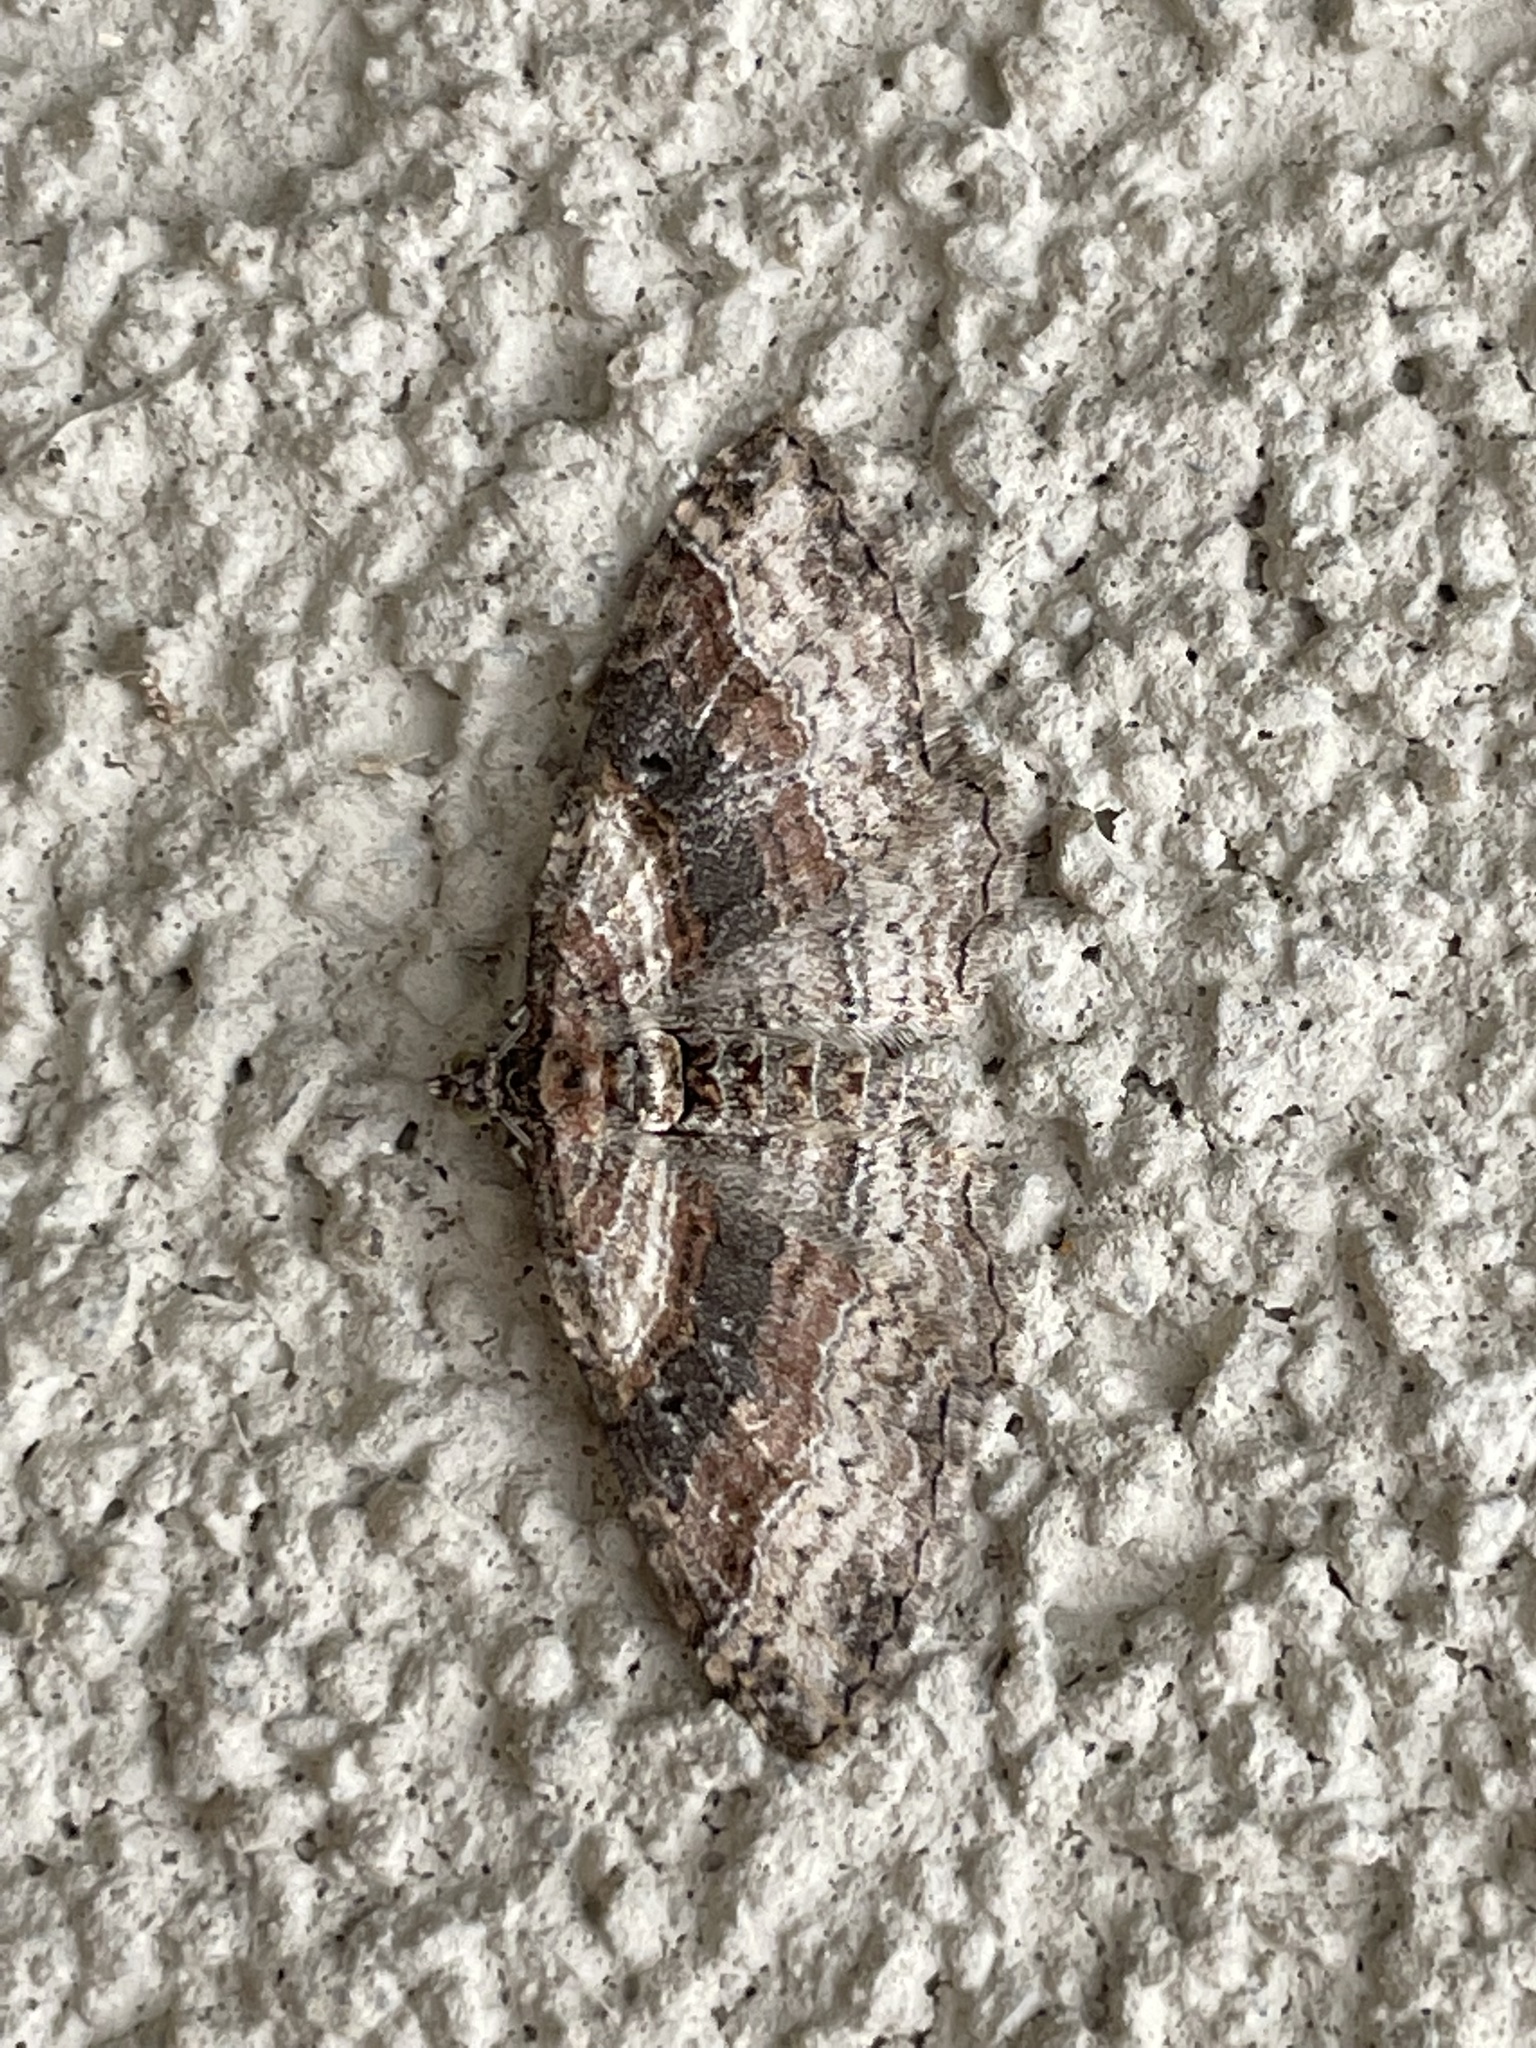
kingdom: Animalia
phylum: Arthropoda
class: Insecta
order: Lepidoptera
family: Geometridae
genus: Costaconvexa
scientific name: Costaconvexa centrostrigaria
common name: Bent-line carpet
